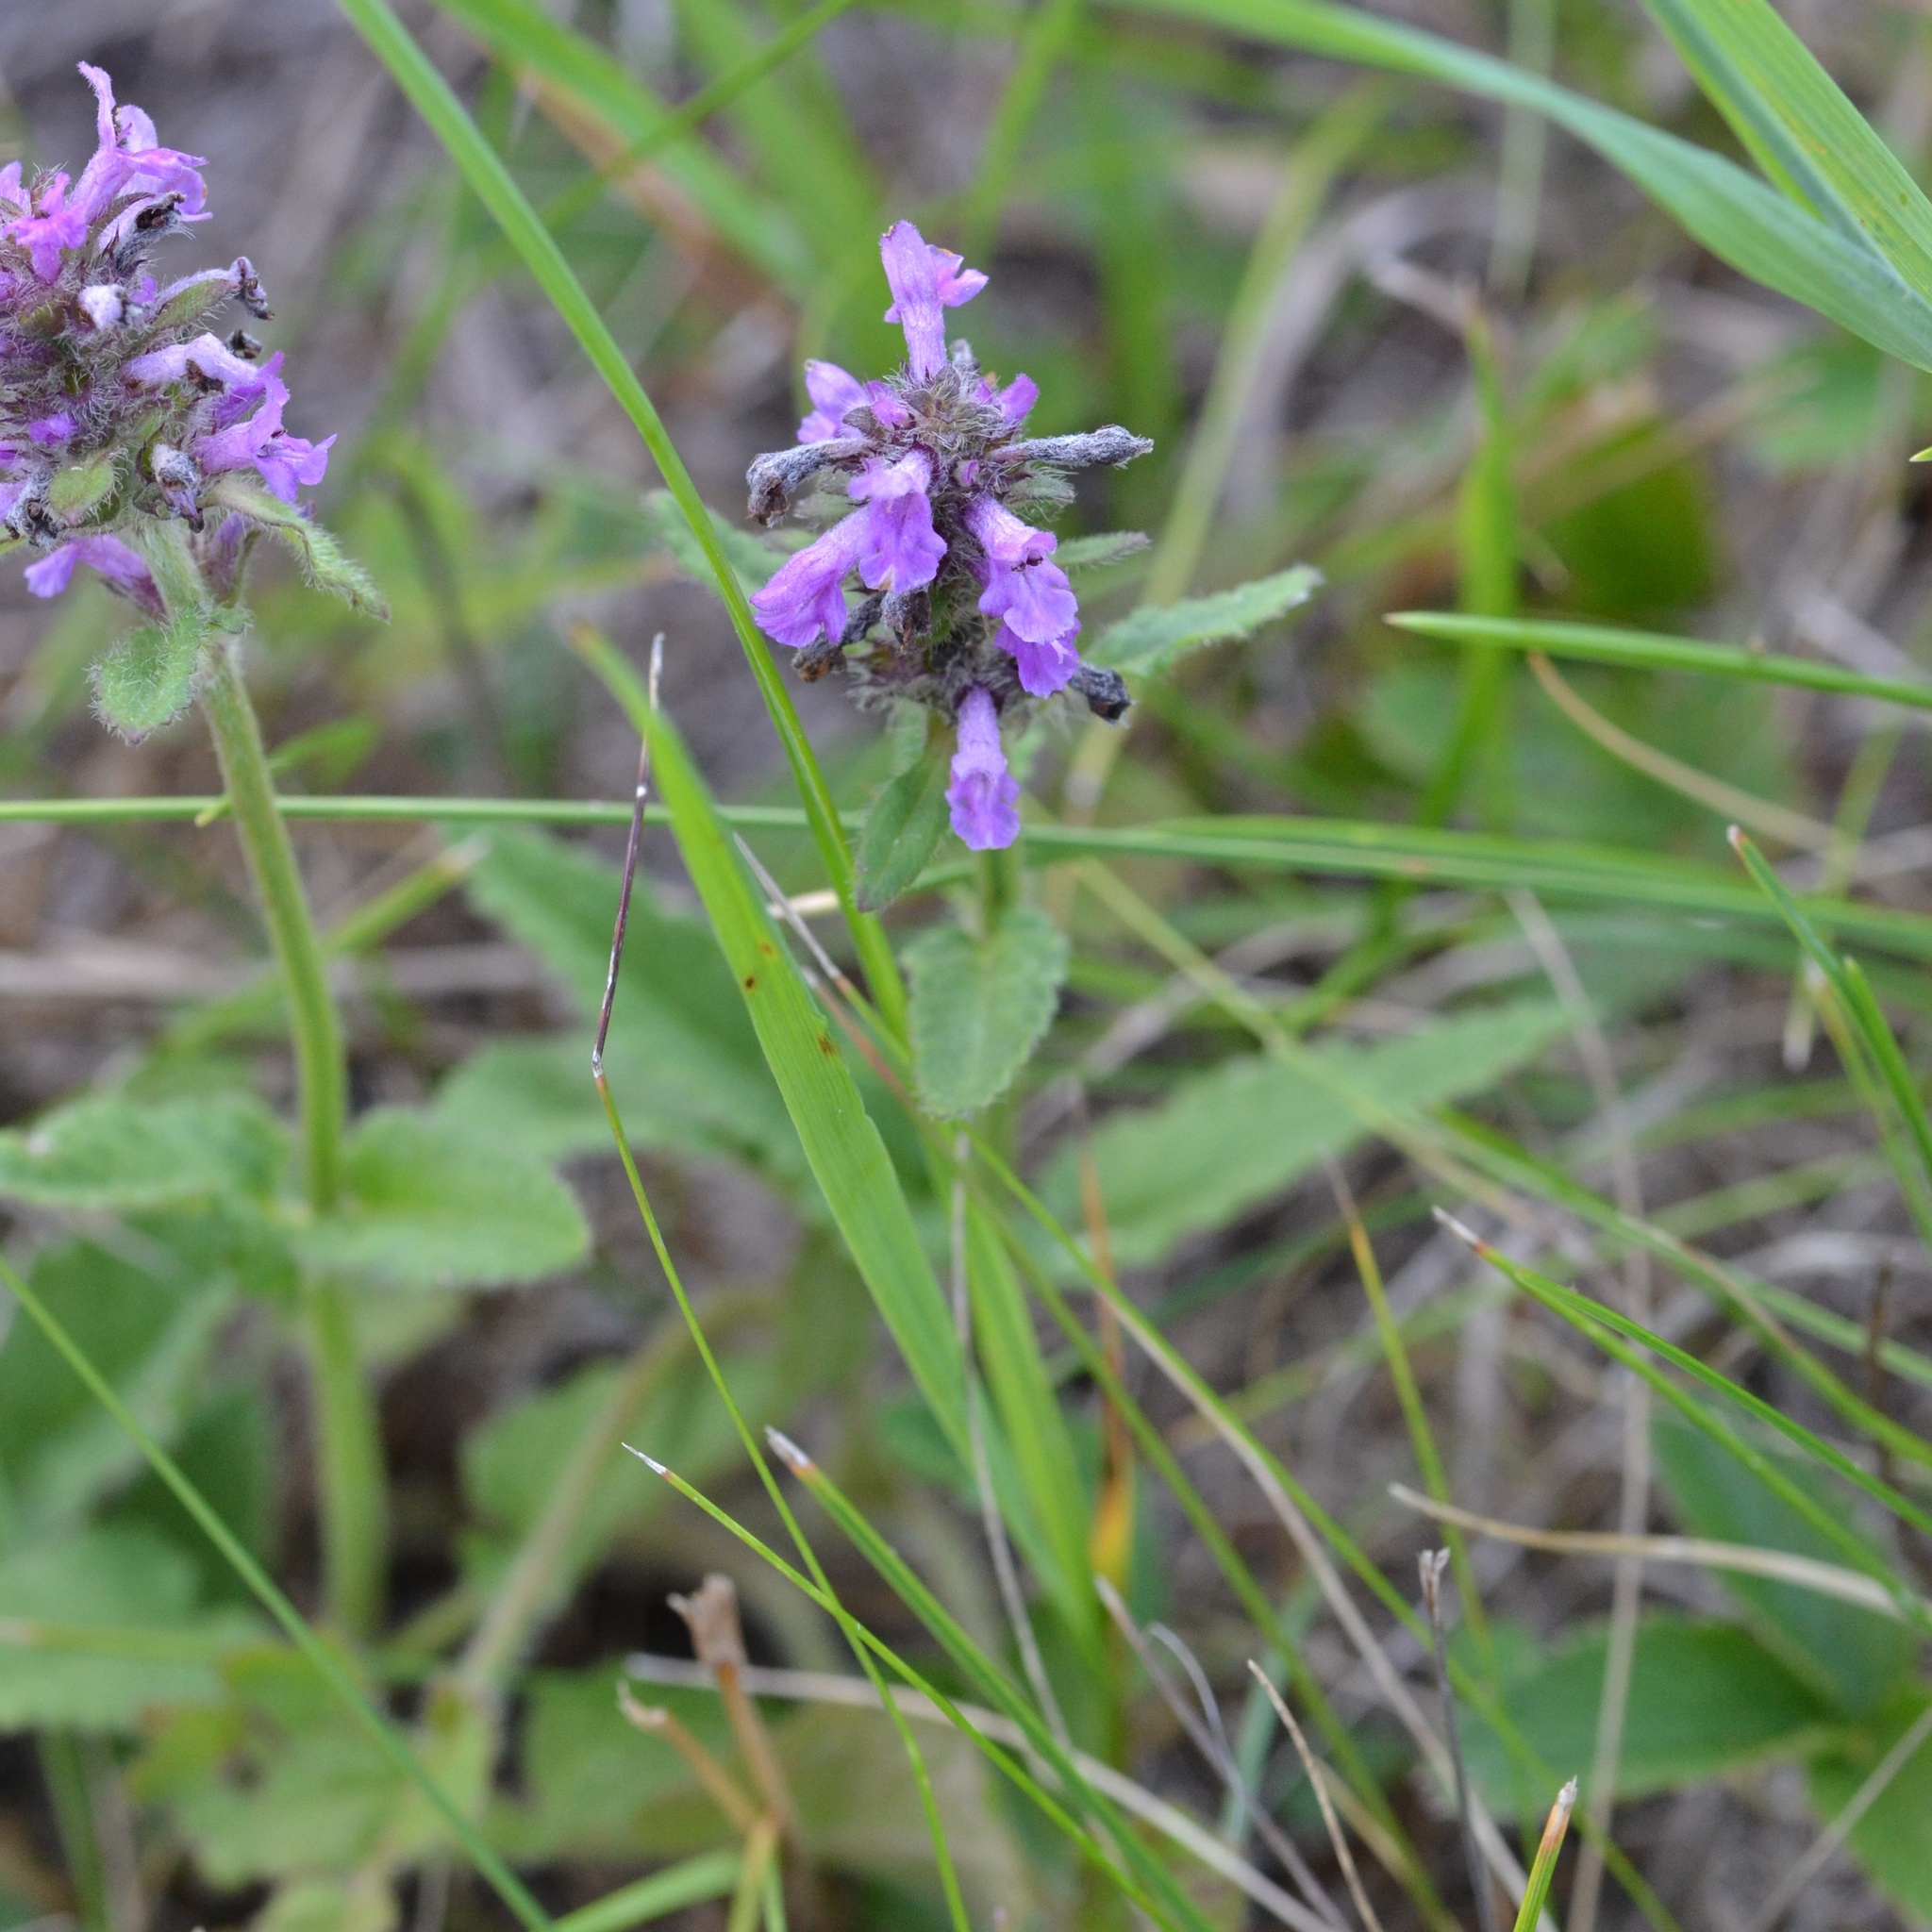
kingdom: Plantae
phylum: Tracheophyta
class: Magnoliopsida
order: Lamiales
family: Lamiaceae
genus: Betonica
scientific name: Betonica officinalis
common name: Bishop's-wort
